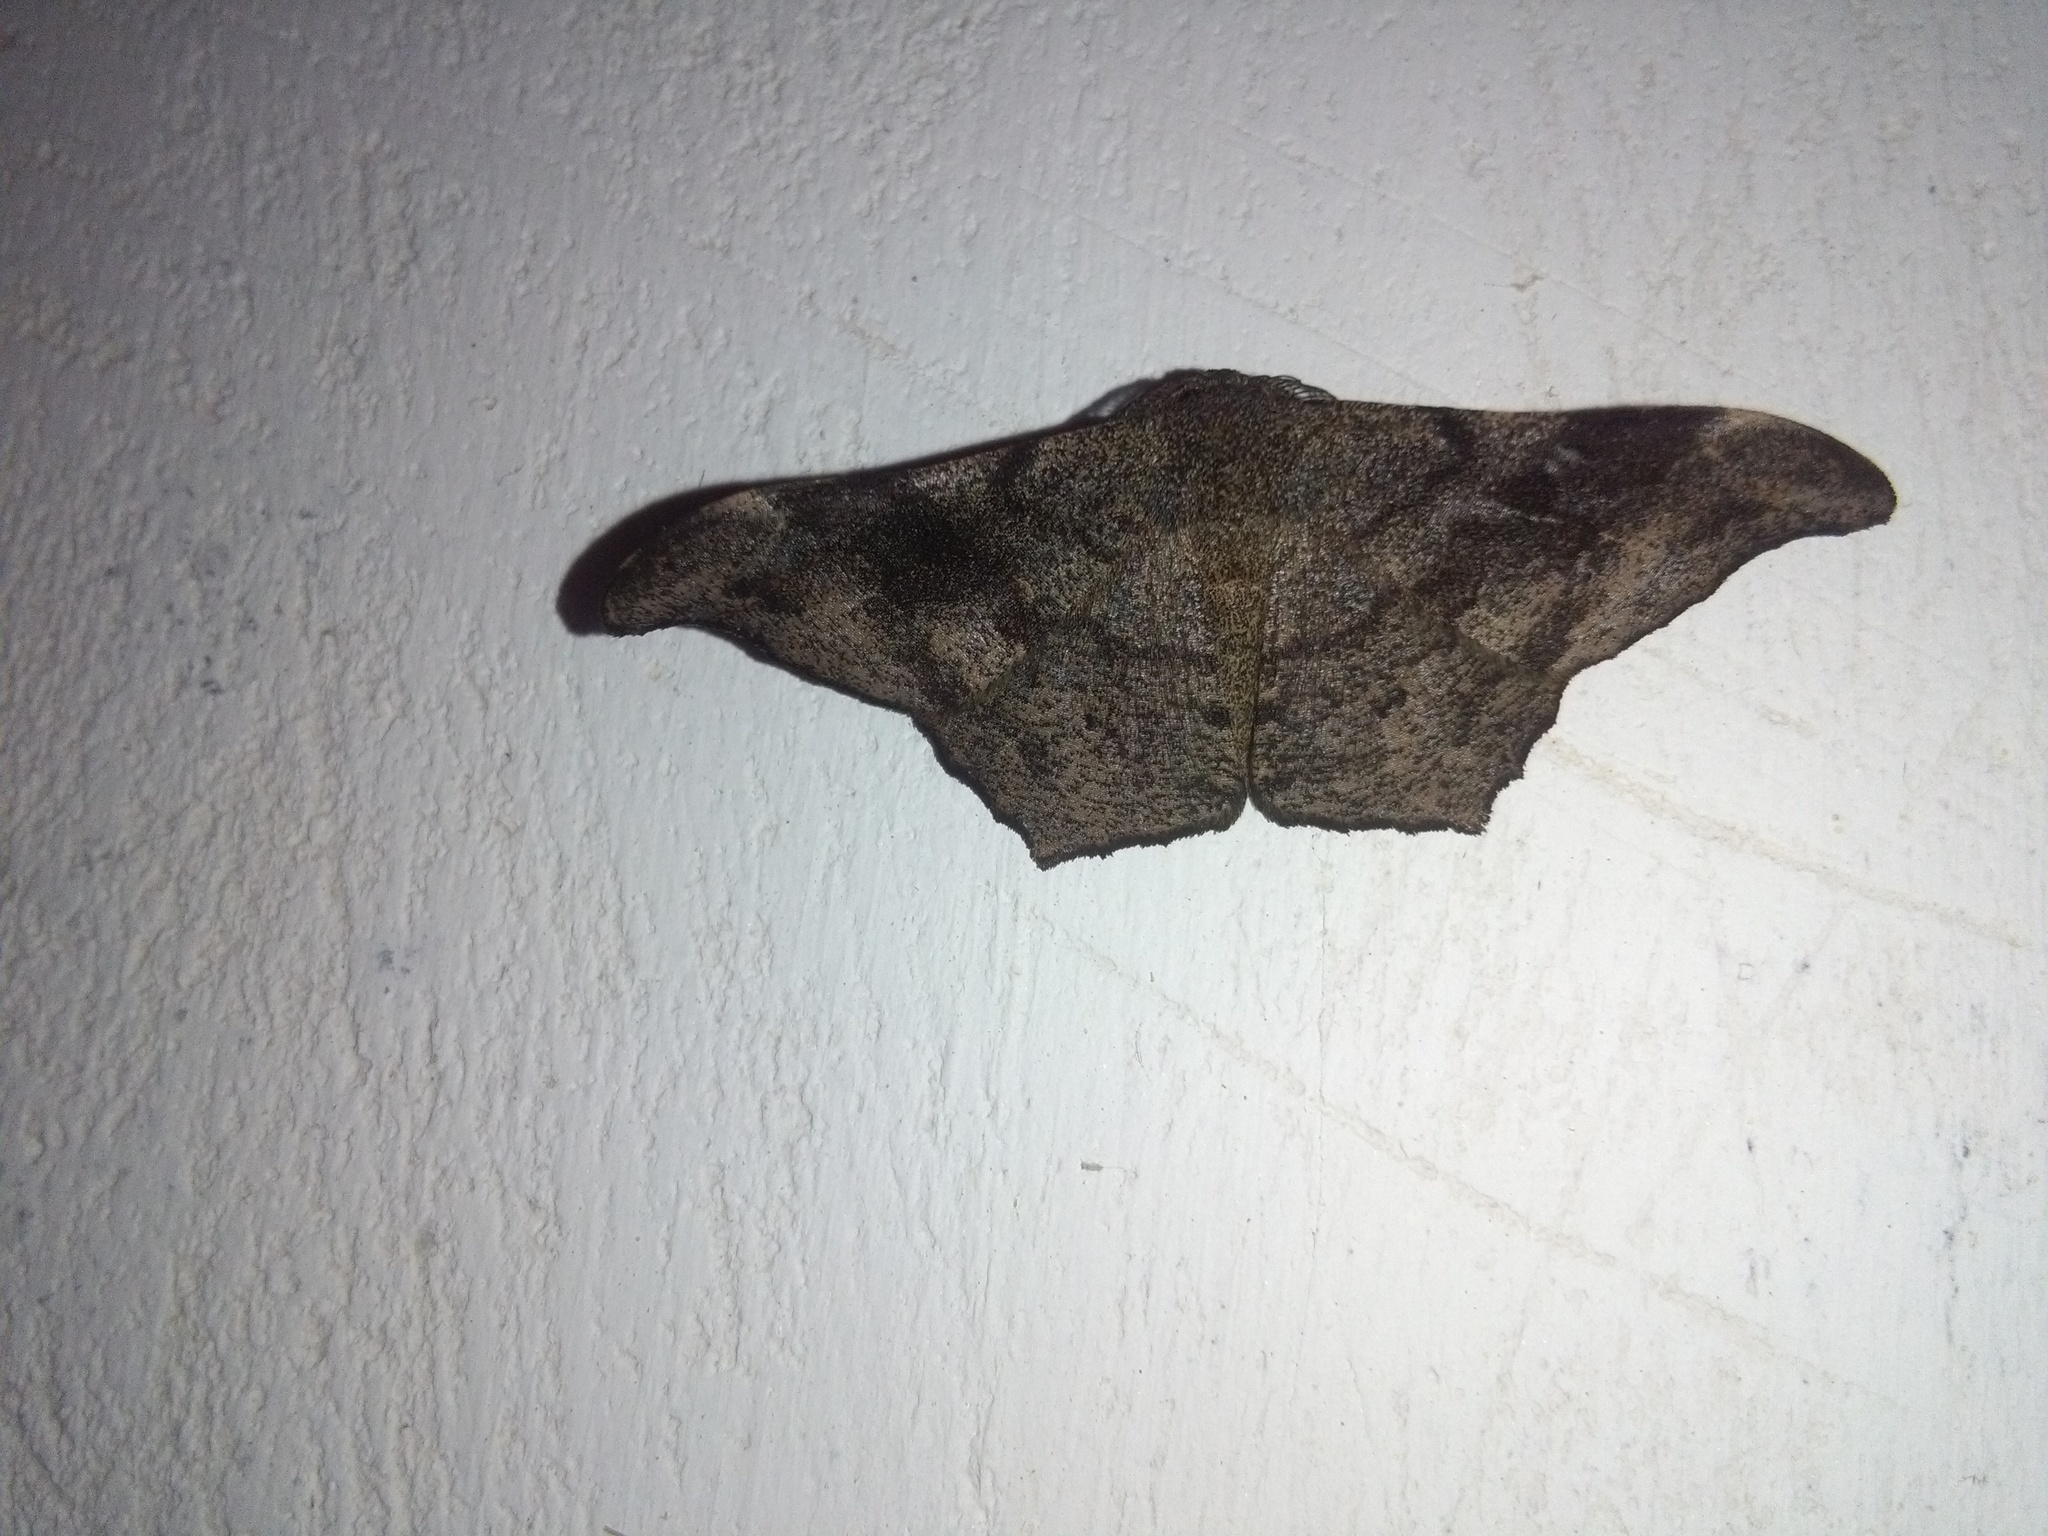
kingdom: Animalia
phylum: Arthropoda
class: Insecta
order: Lepidoptera
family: Geometridae
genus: Hyposidra
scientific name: Hyposidra talaca
